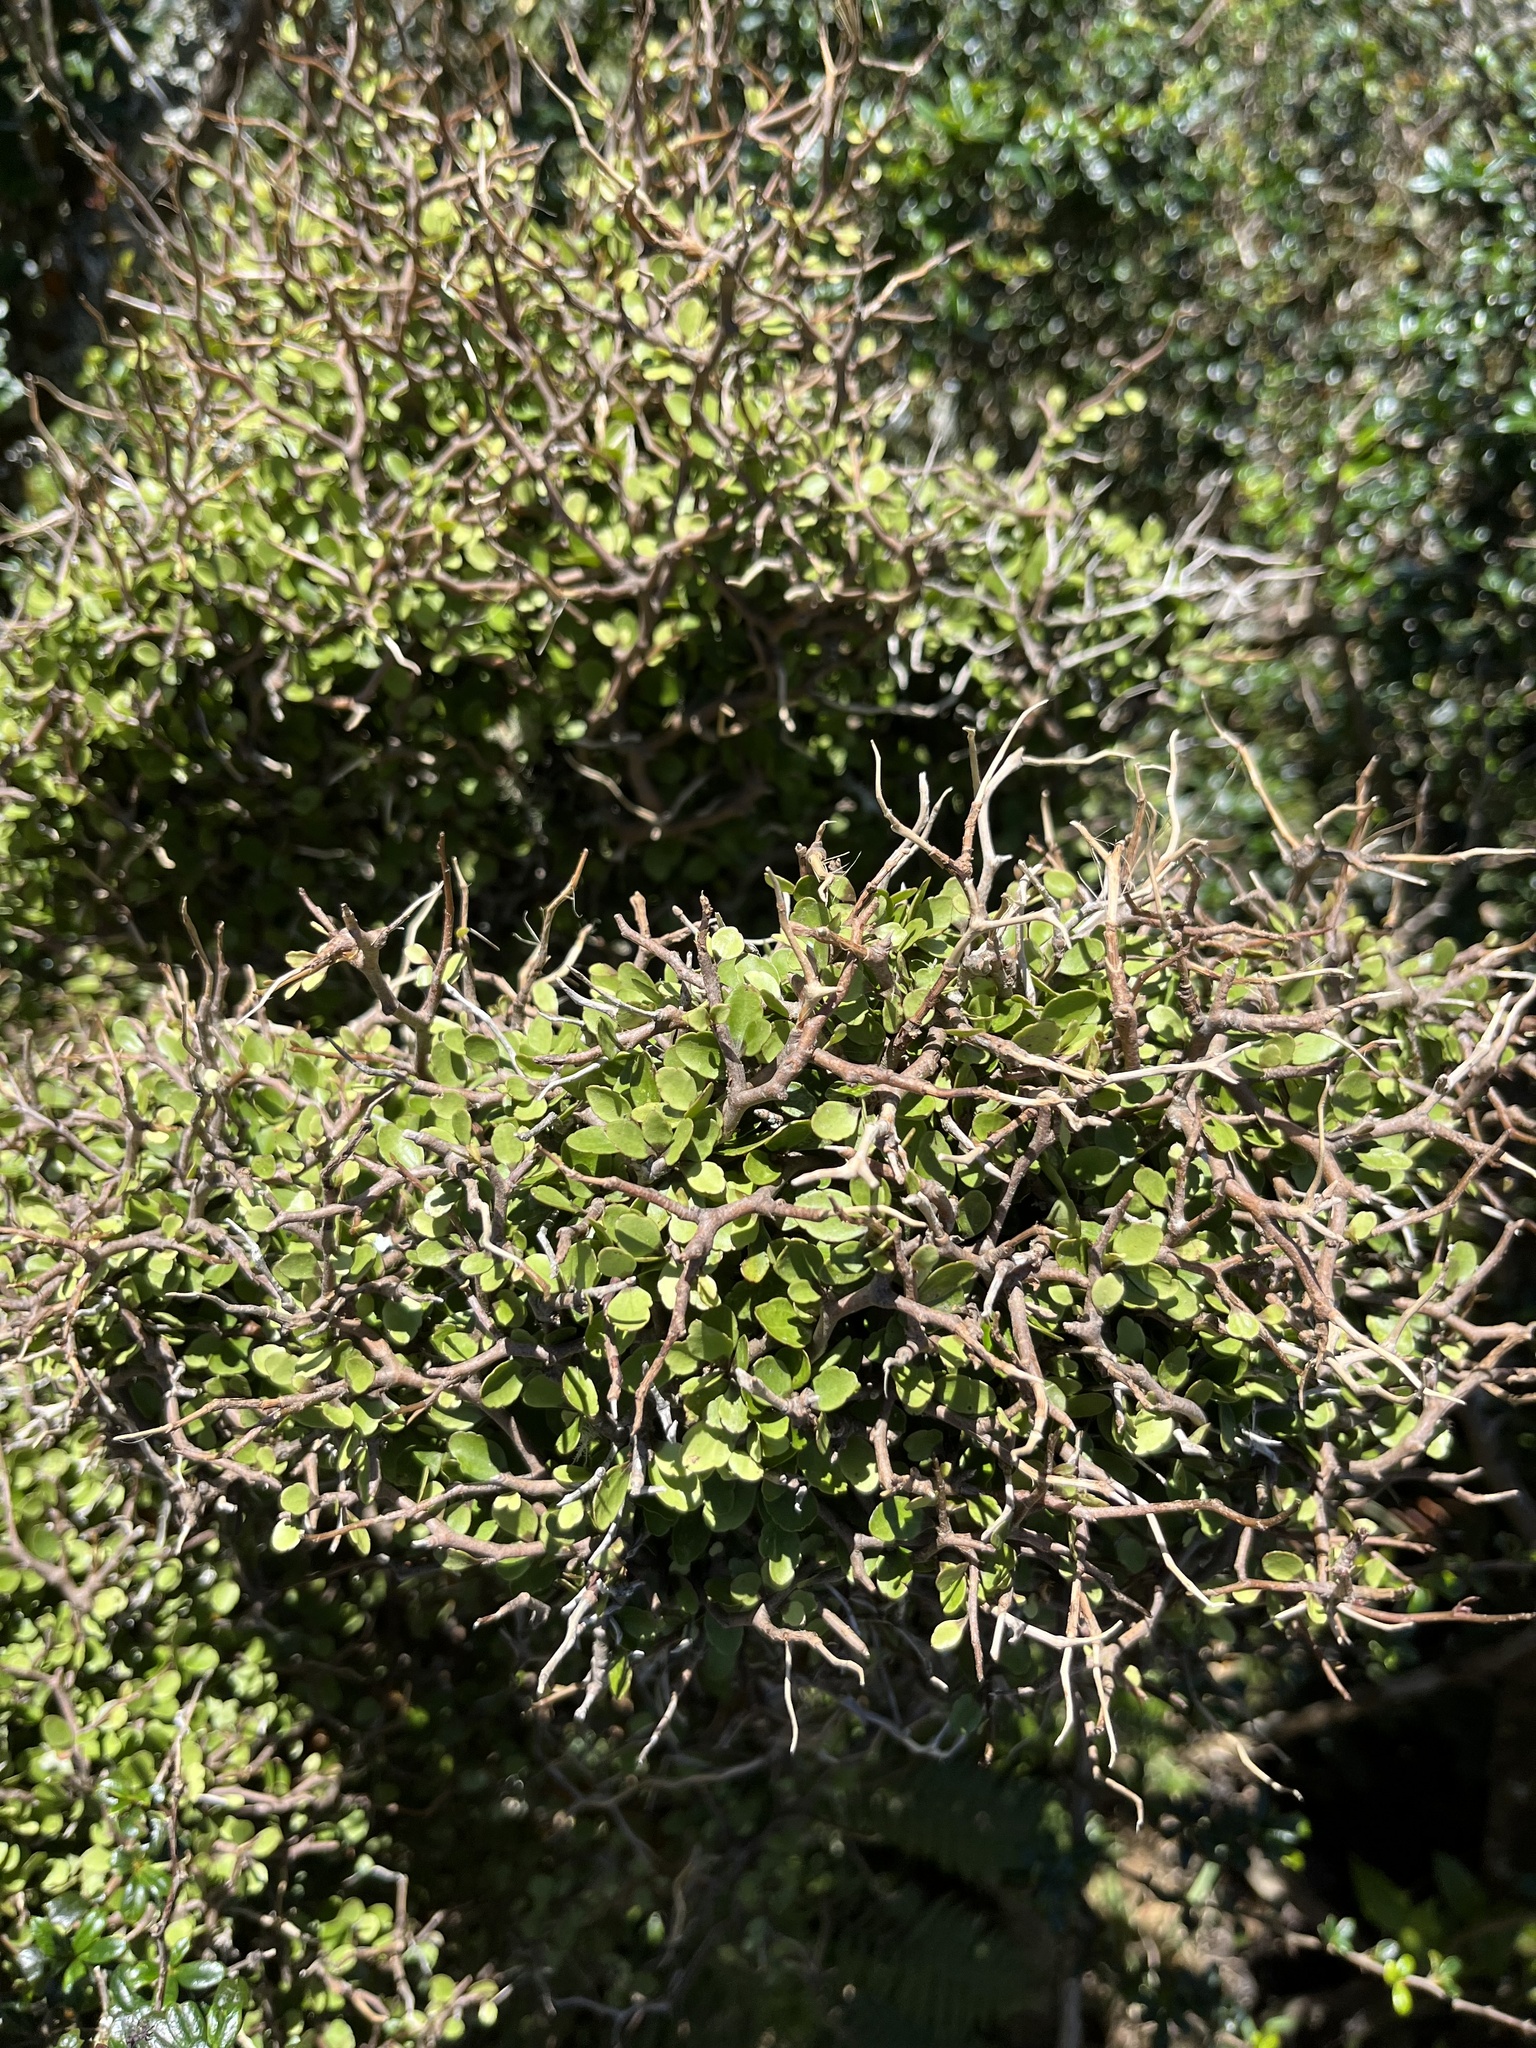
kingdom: Plantae
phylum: Tracheophyta
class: Magnoliopsida
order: Apiales
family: Araliaceae
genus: Raukaua
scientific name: Raukaua anomalus
